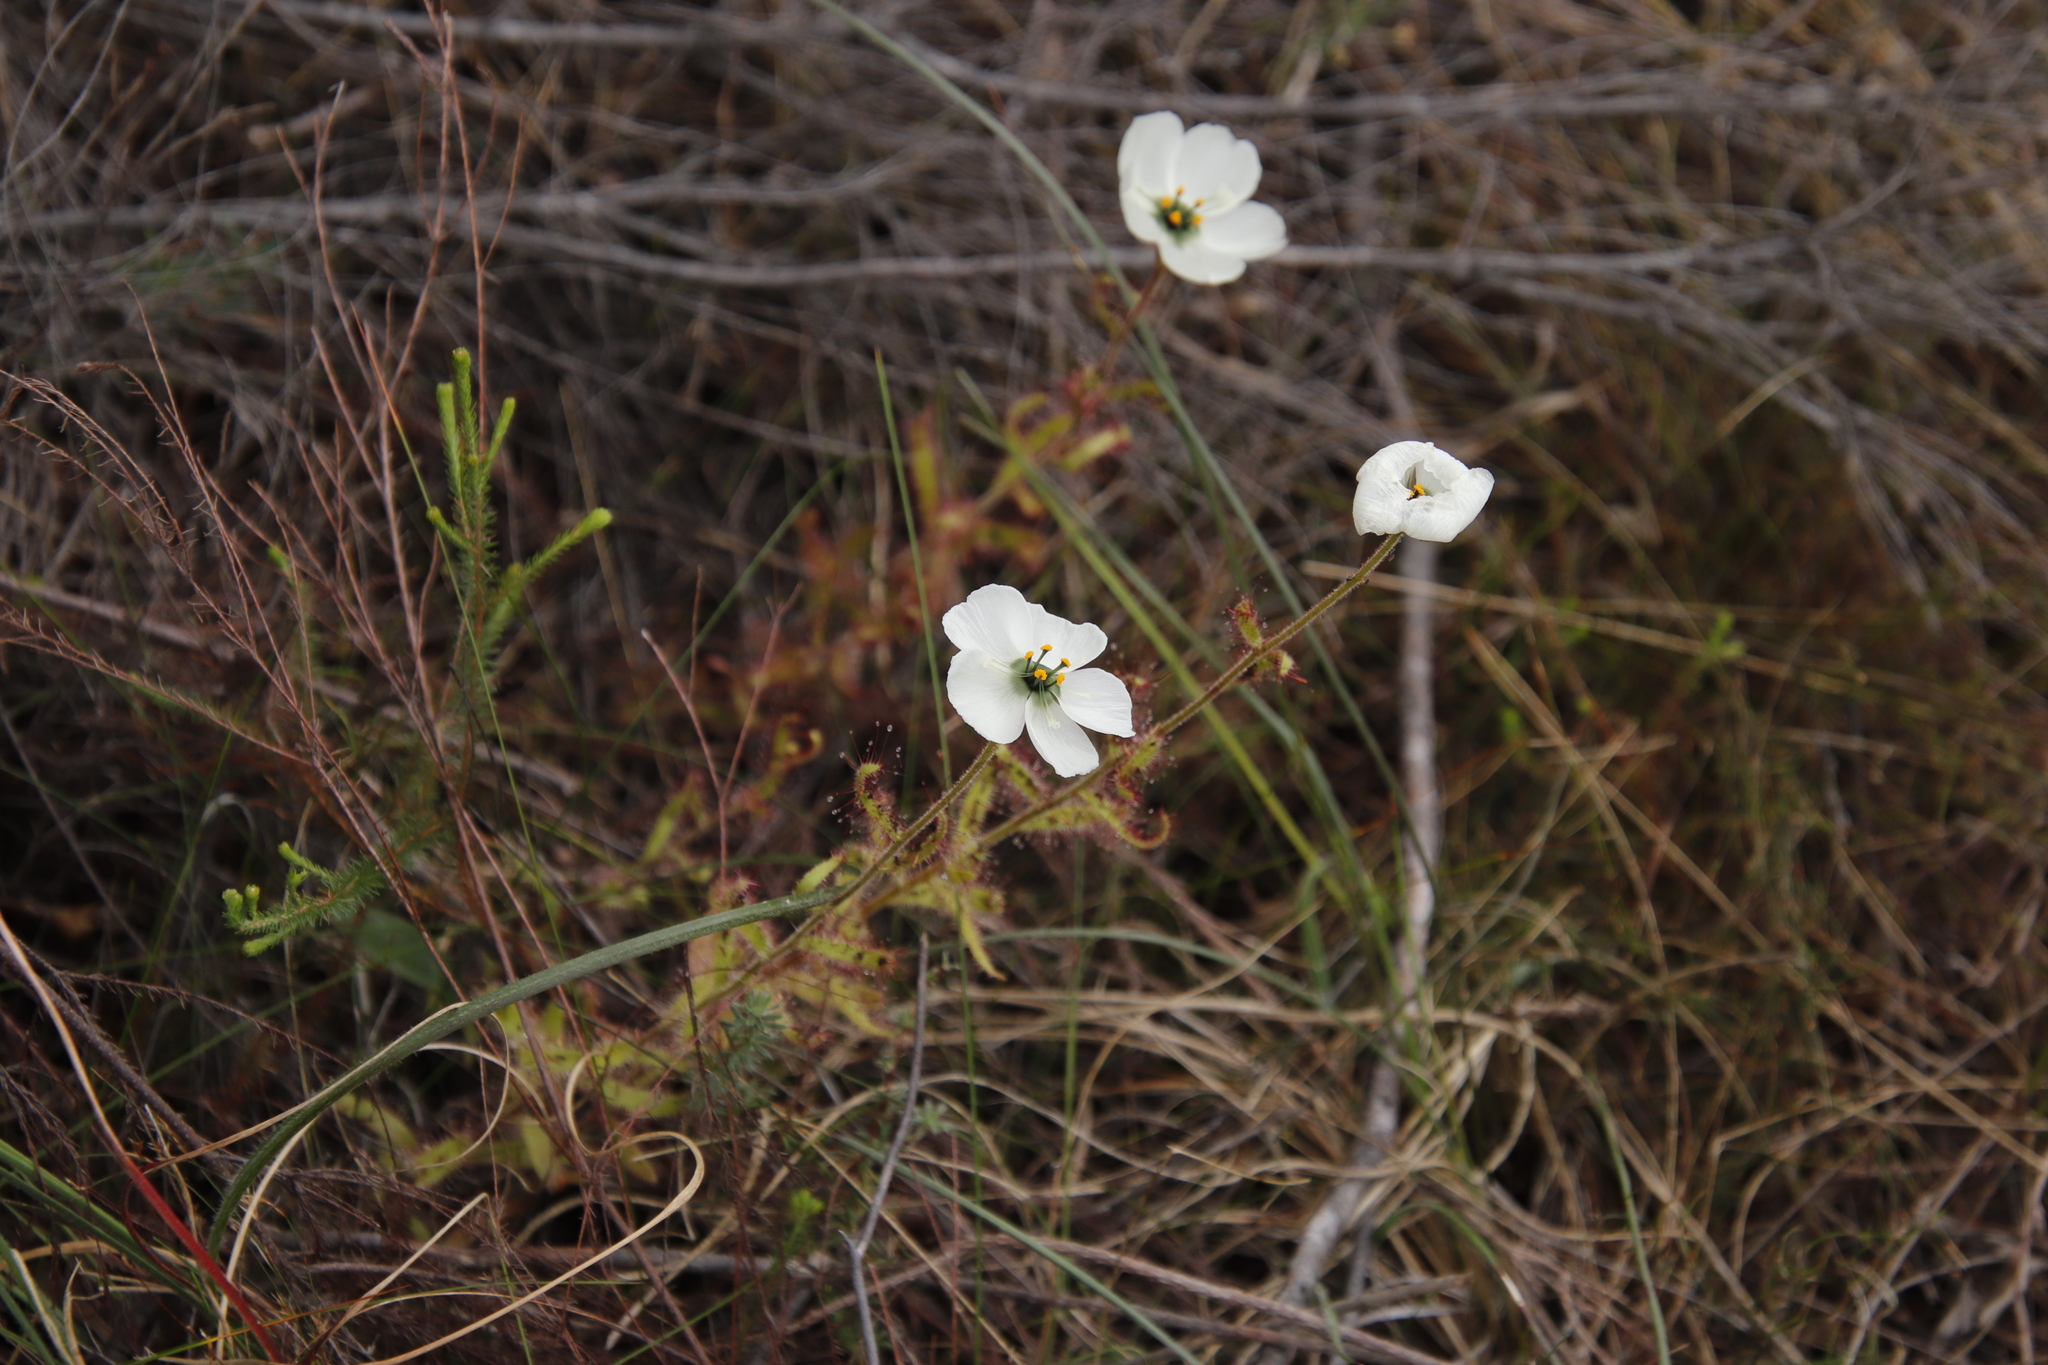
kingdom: Plantae
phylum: Tracheophyta
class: Magnoliopsida
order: Caryophyllales
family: Droseraceae
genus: Drosera
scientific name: Drosera cistiflora
